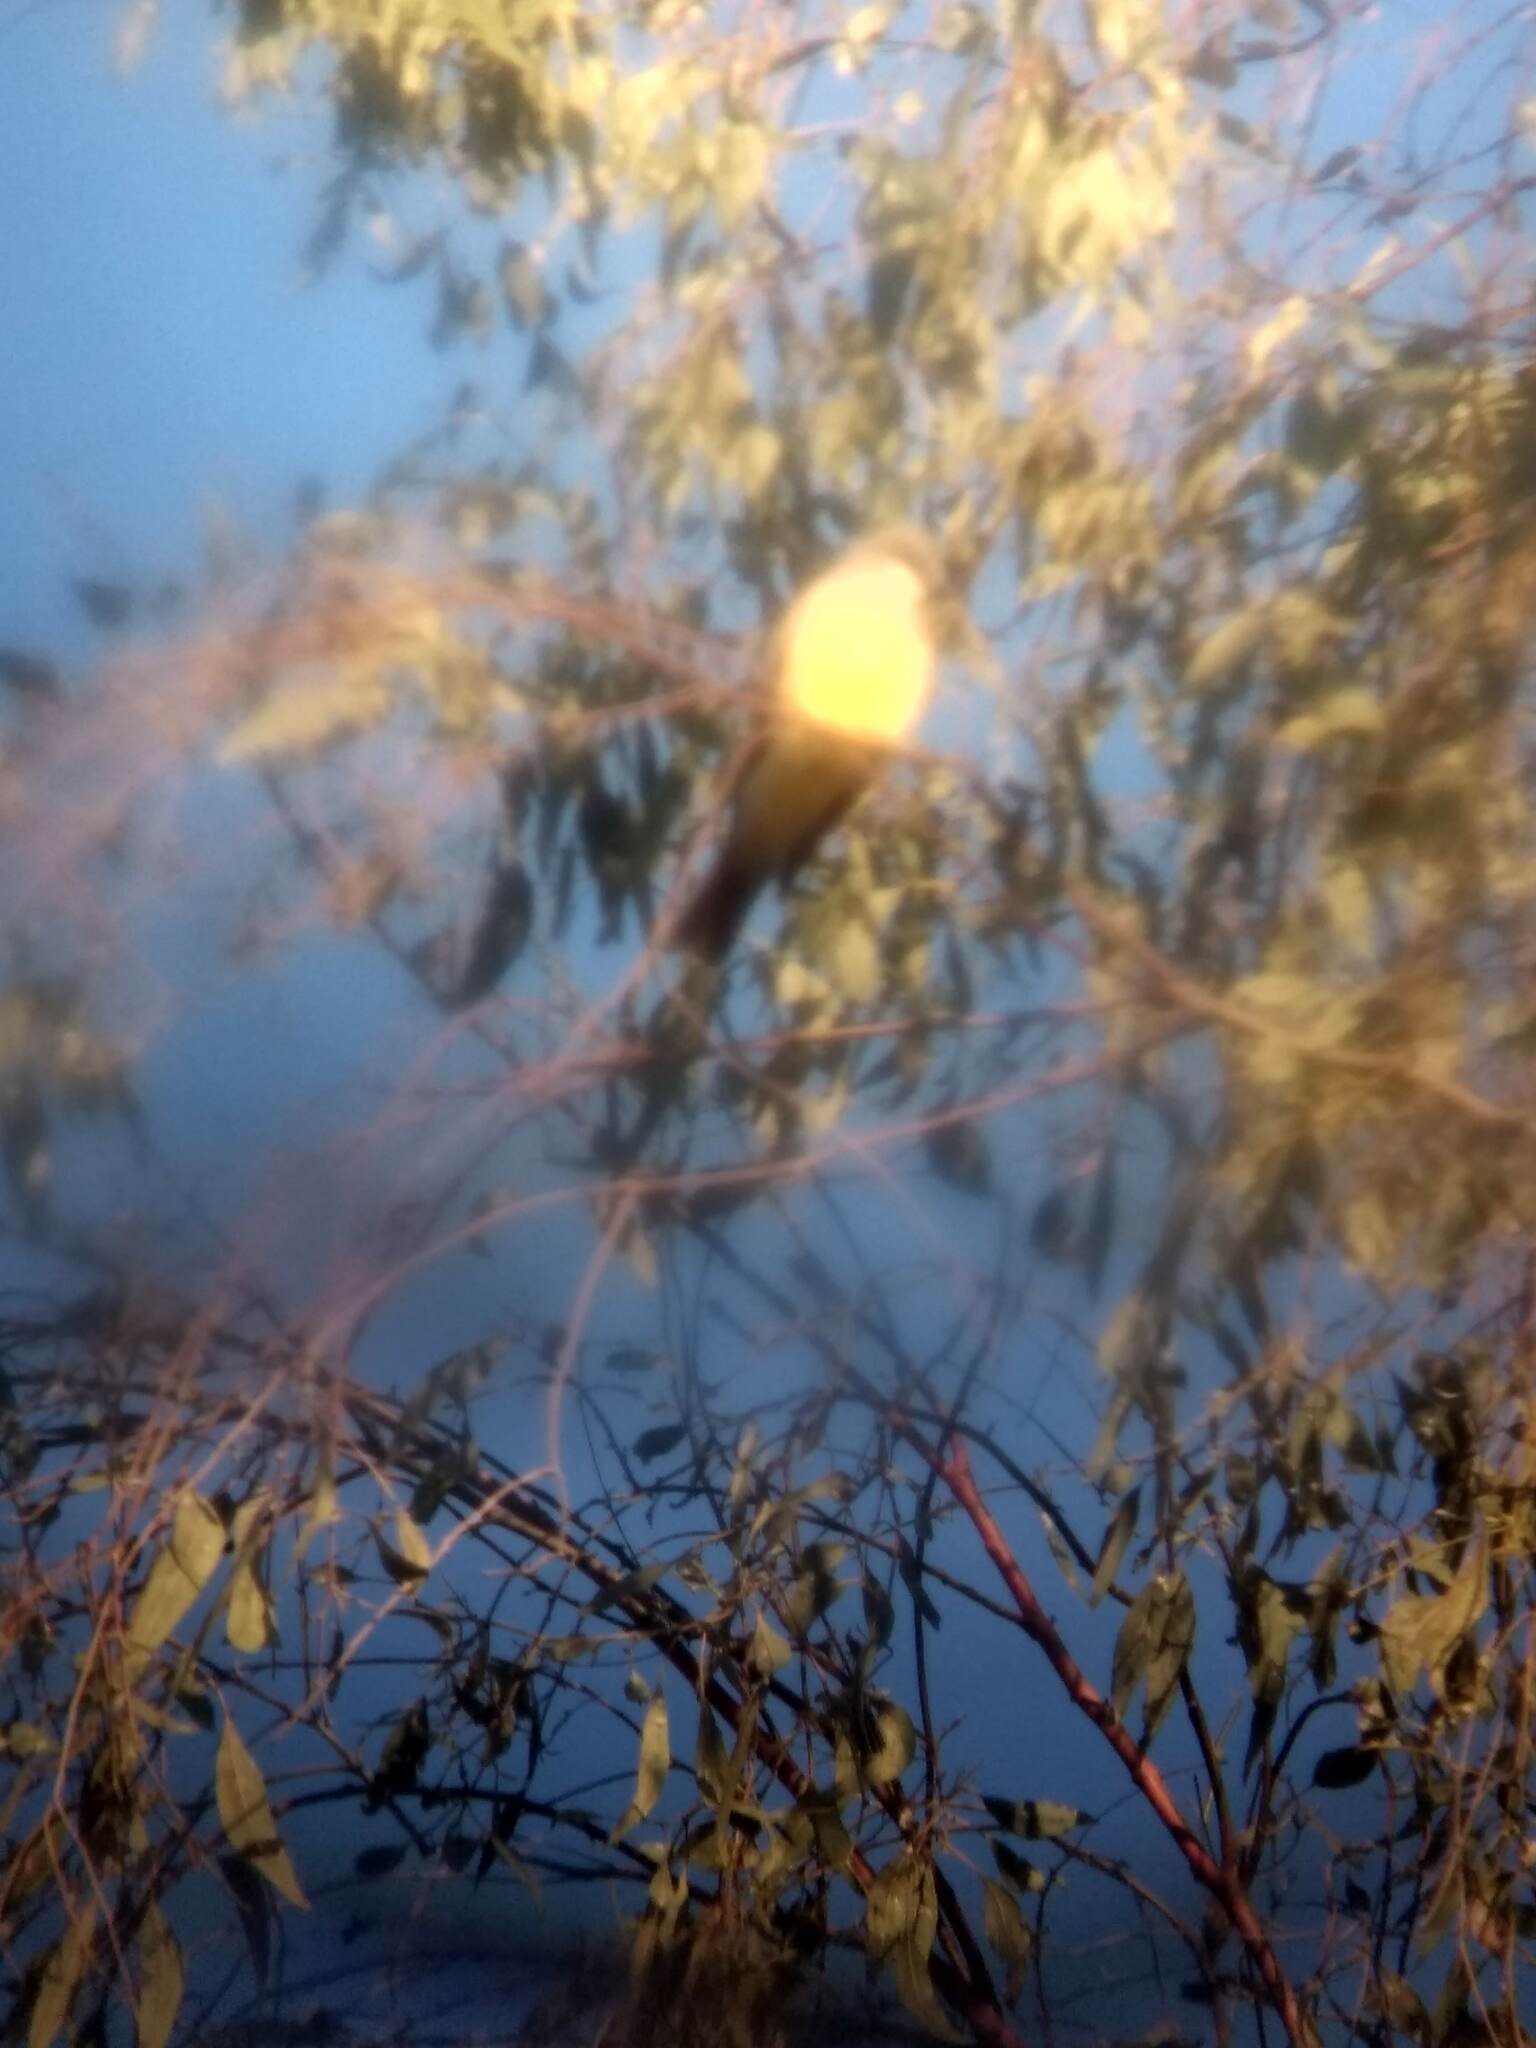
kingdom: Animalia
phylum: Chordata
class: Aves
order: Passeriformes
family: Tyrannidae
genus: Tyrannus
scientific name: Tyrannus vociferans
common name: Cassin's kingbird
